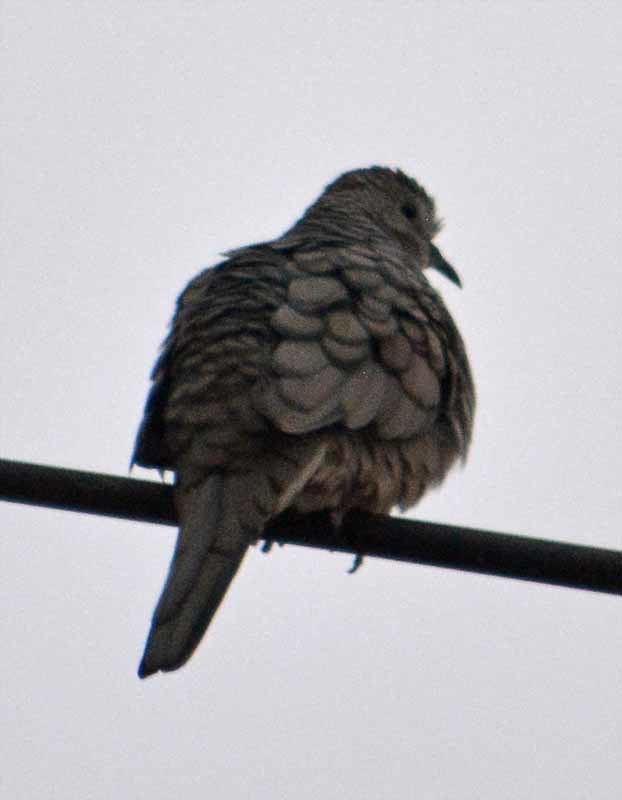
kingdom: Animalia
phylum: Chordata
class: Aves
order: Columbiformes
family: Columbidae
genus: Columbina
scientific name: Columbina inca
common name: Inca dove
